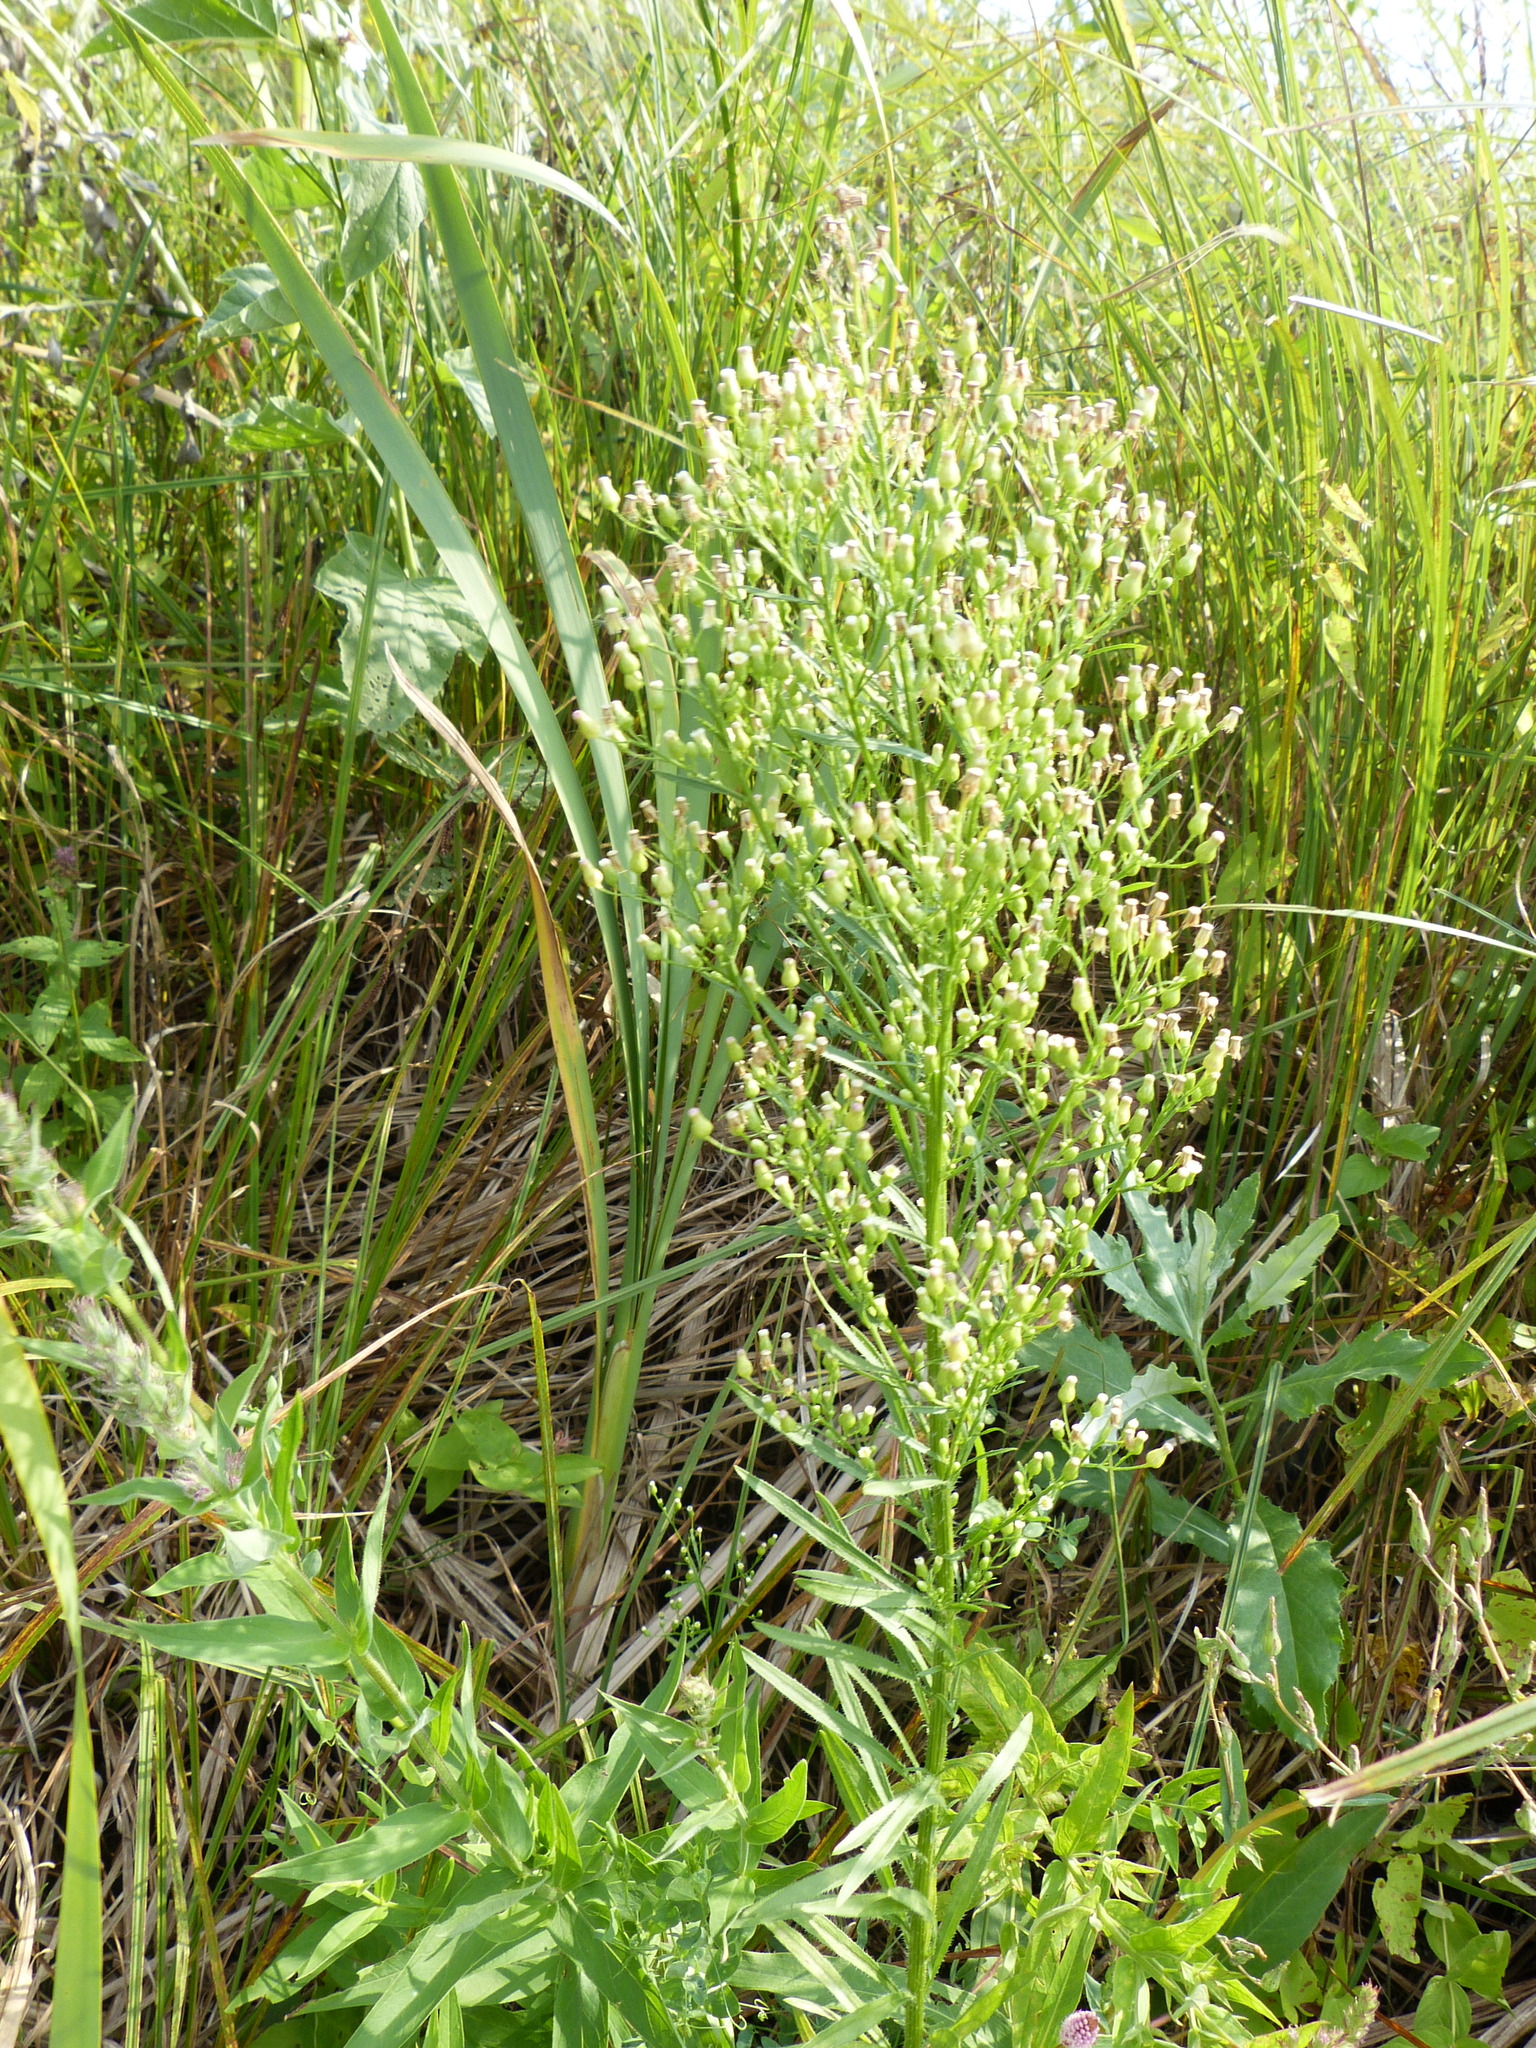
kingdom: Plantae
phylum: Tracheophyta
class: Magnoliopsida
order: Asterales
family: Asteraceae
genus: Erigeron
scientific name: Erigeron canadensis
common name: Canadian fleabane
